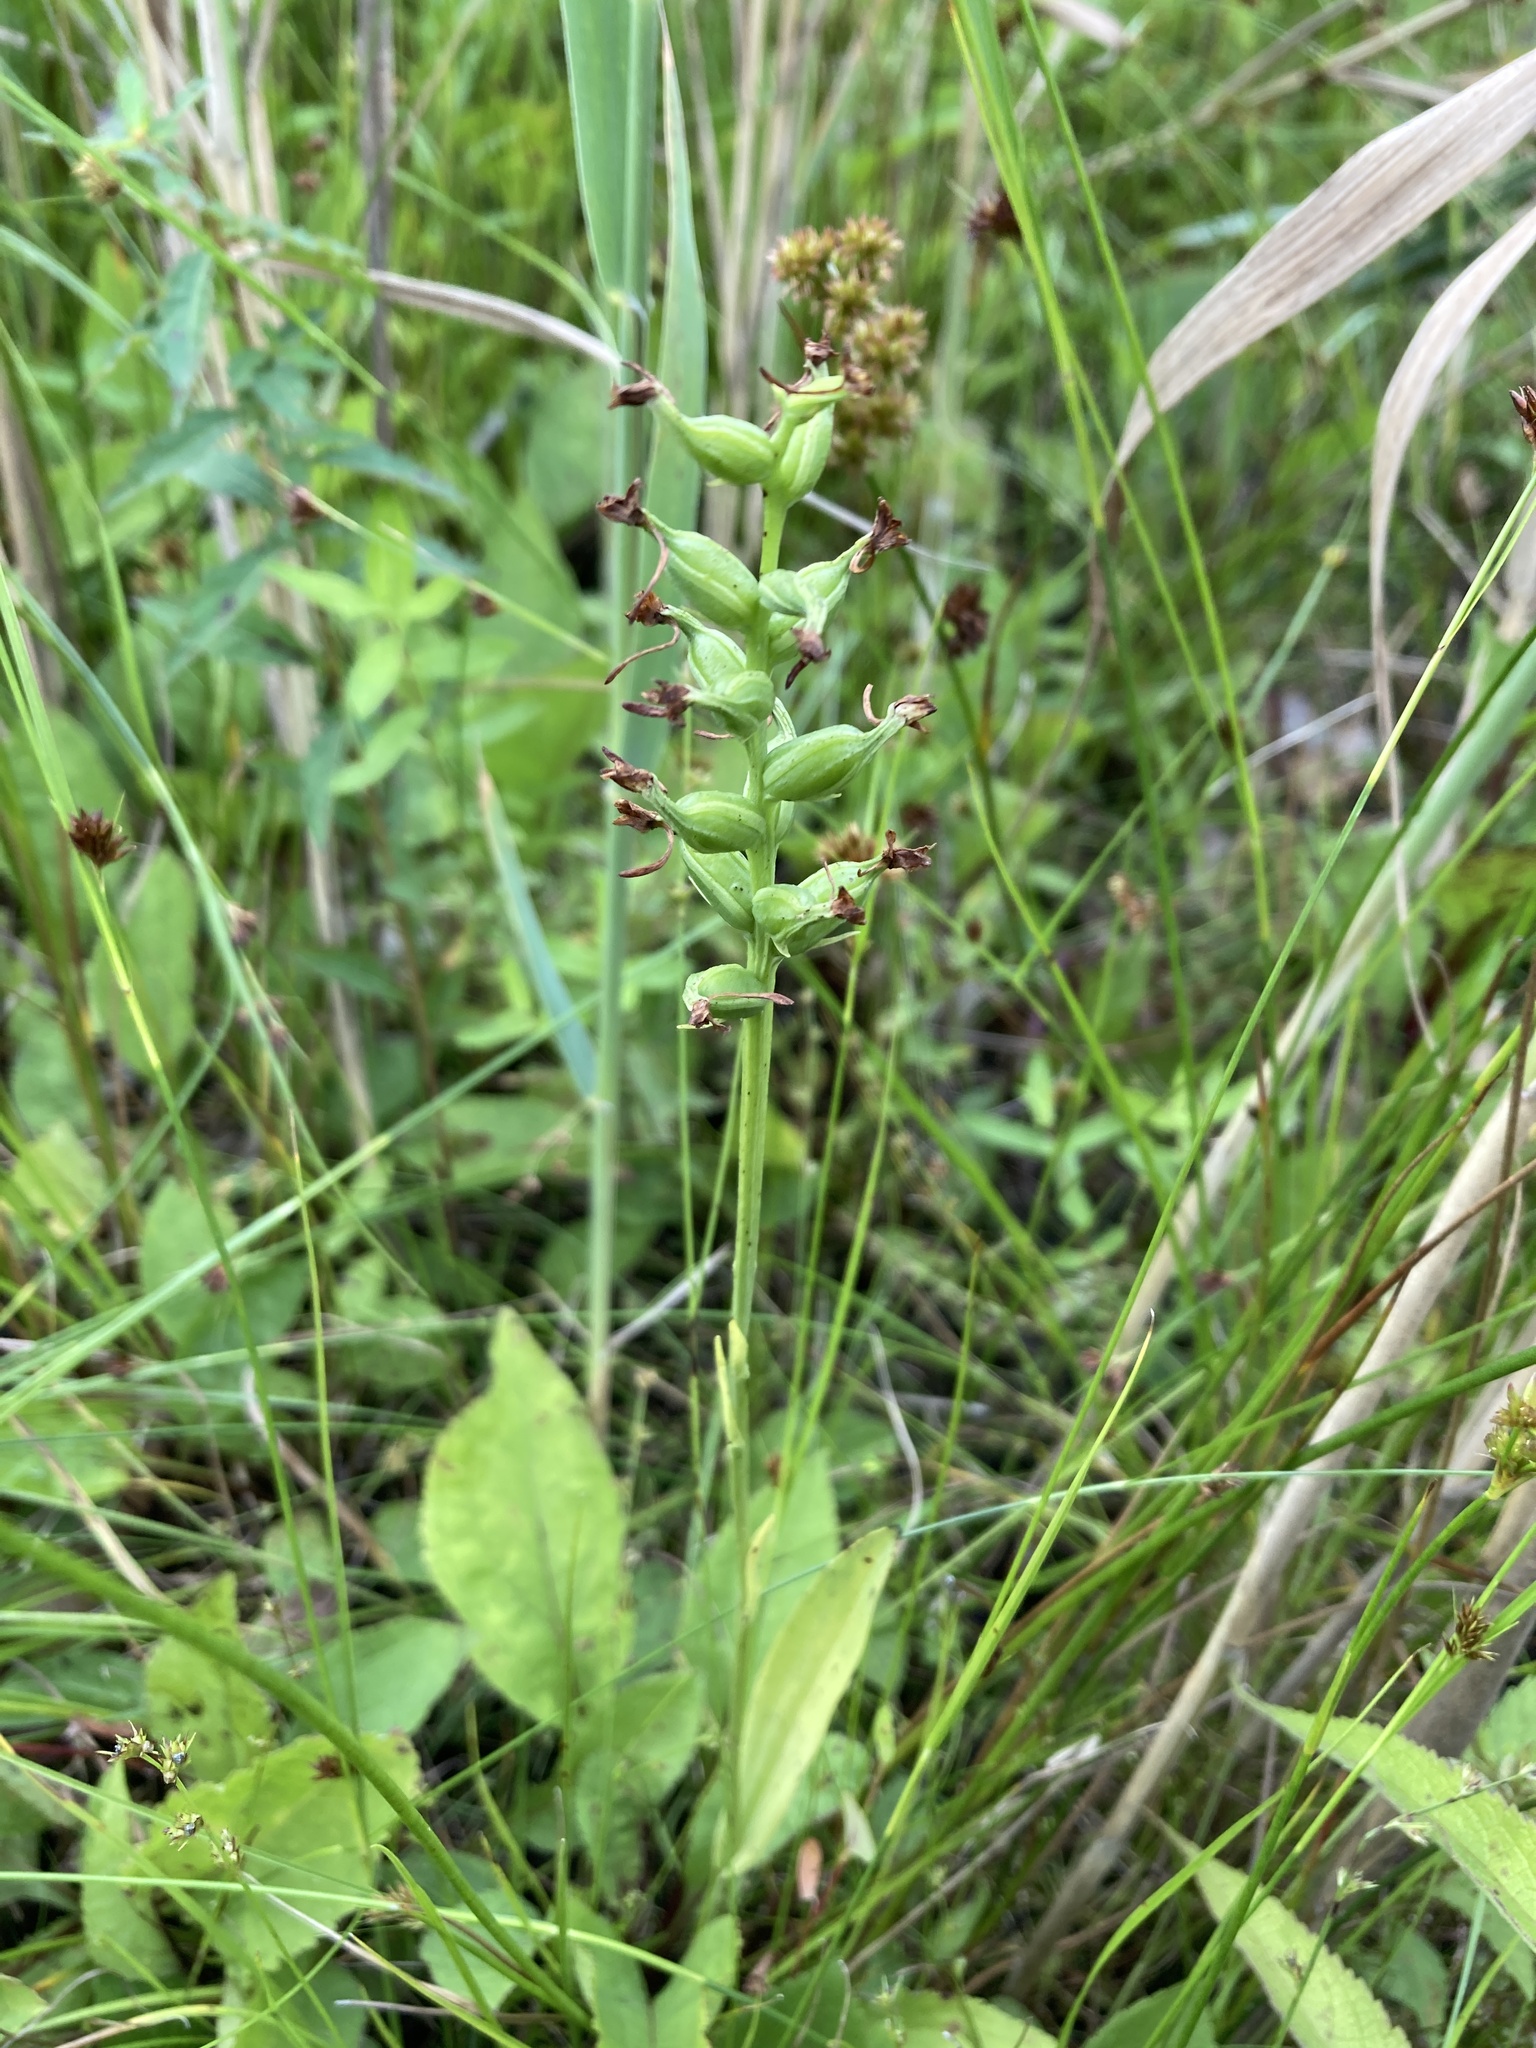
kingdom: Plantae
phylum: Tracheophyta
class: Liliopsida
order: Asparagales
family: Orchidaceae
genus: Platanthera
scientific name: Platanthera clavellata
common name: Club-spur orchid
